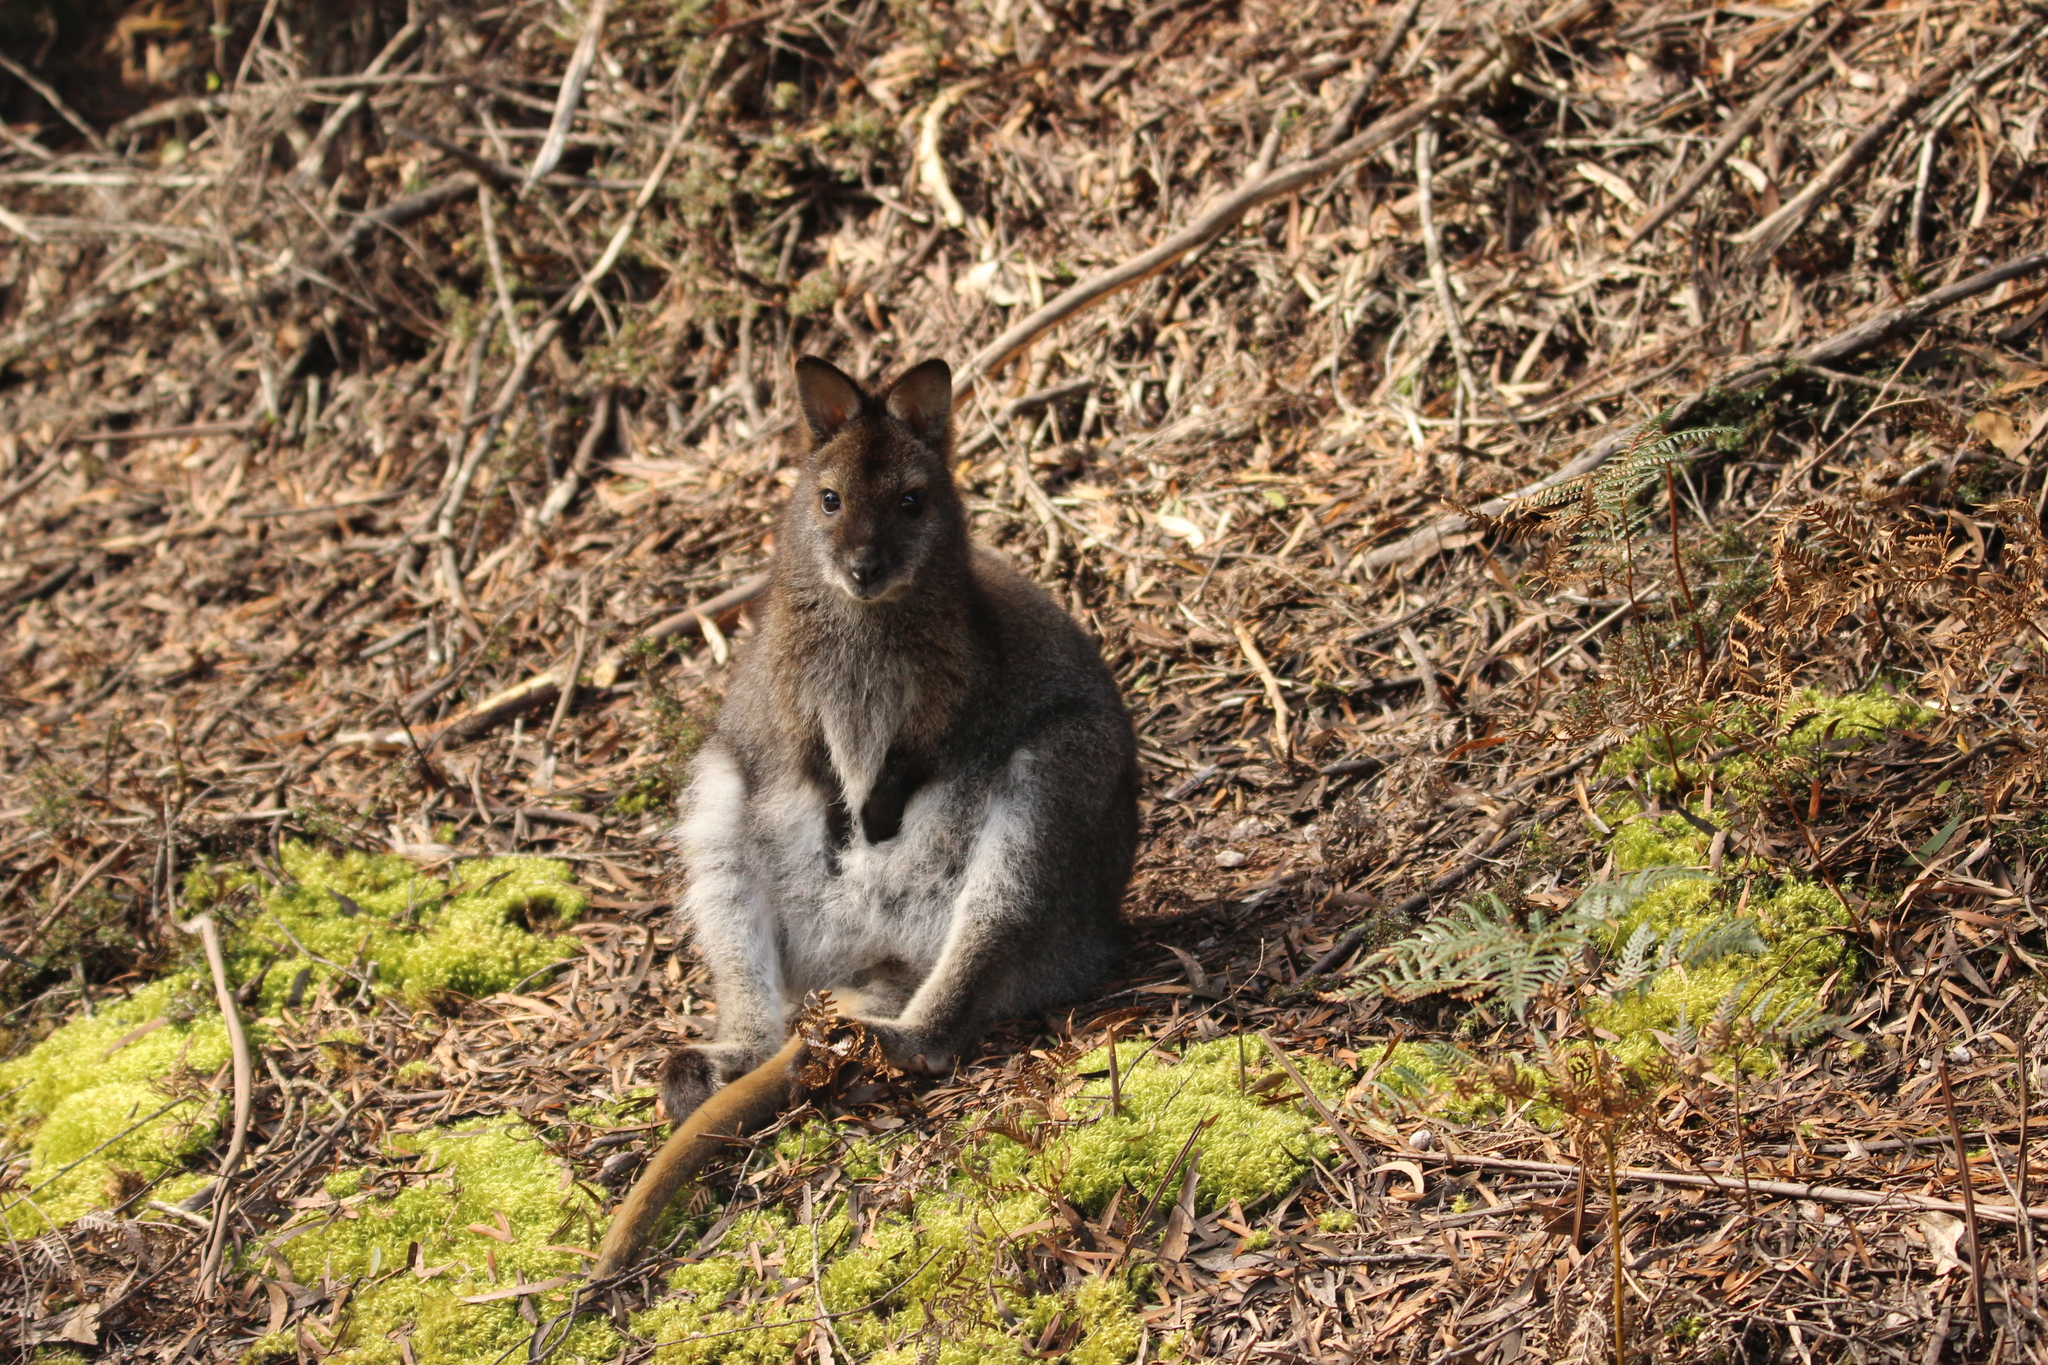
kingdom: Animalia
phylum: Chordata
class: Mammalia
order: Diprotodontia
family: Macropodidae
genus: Notamacropus
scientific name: Notamacropus rufogriseus
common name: Red-necked wallaby
